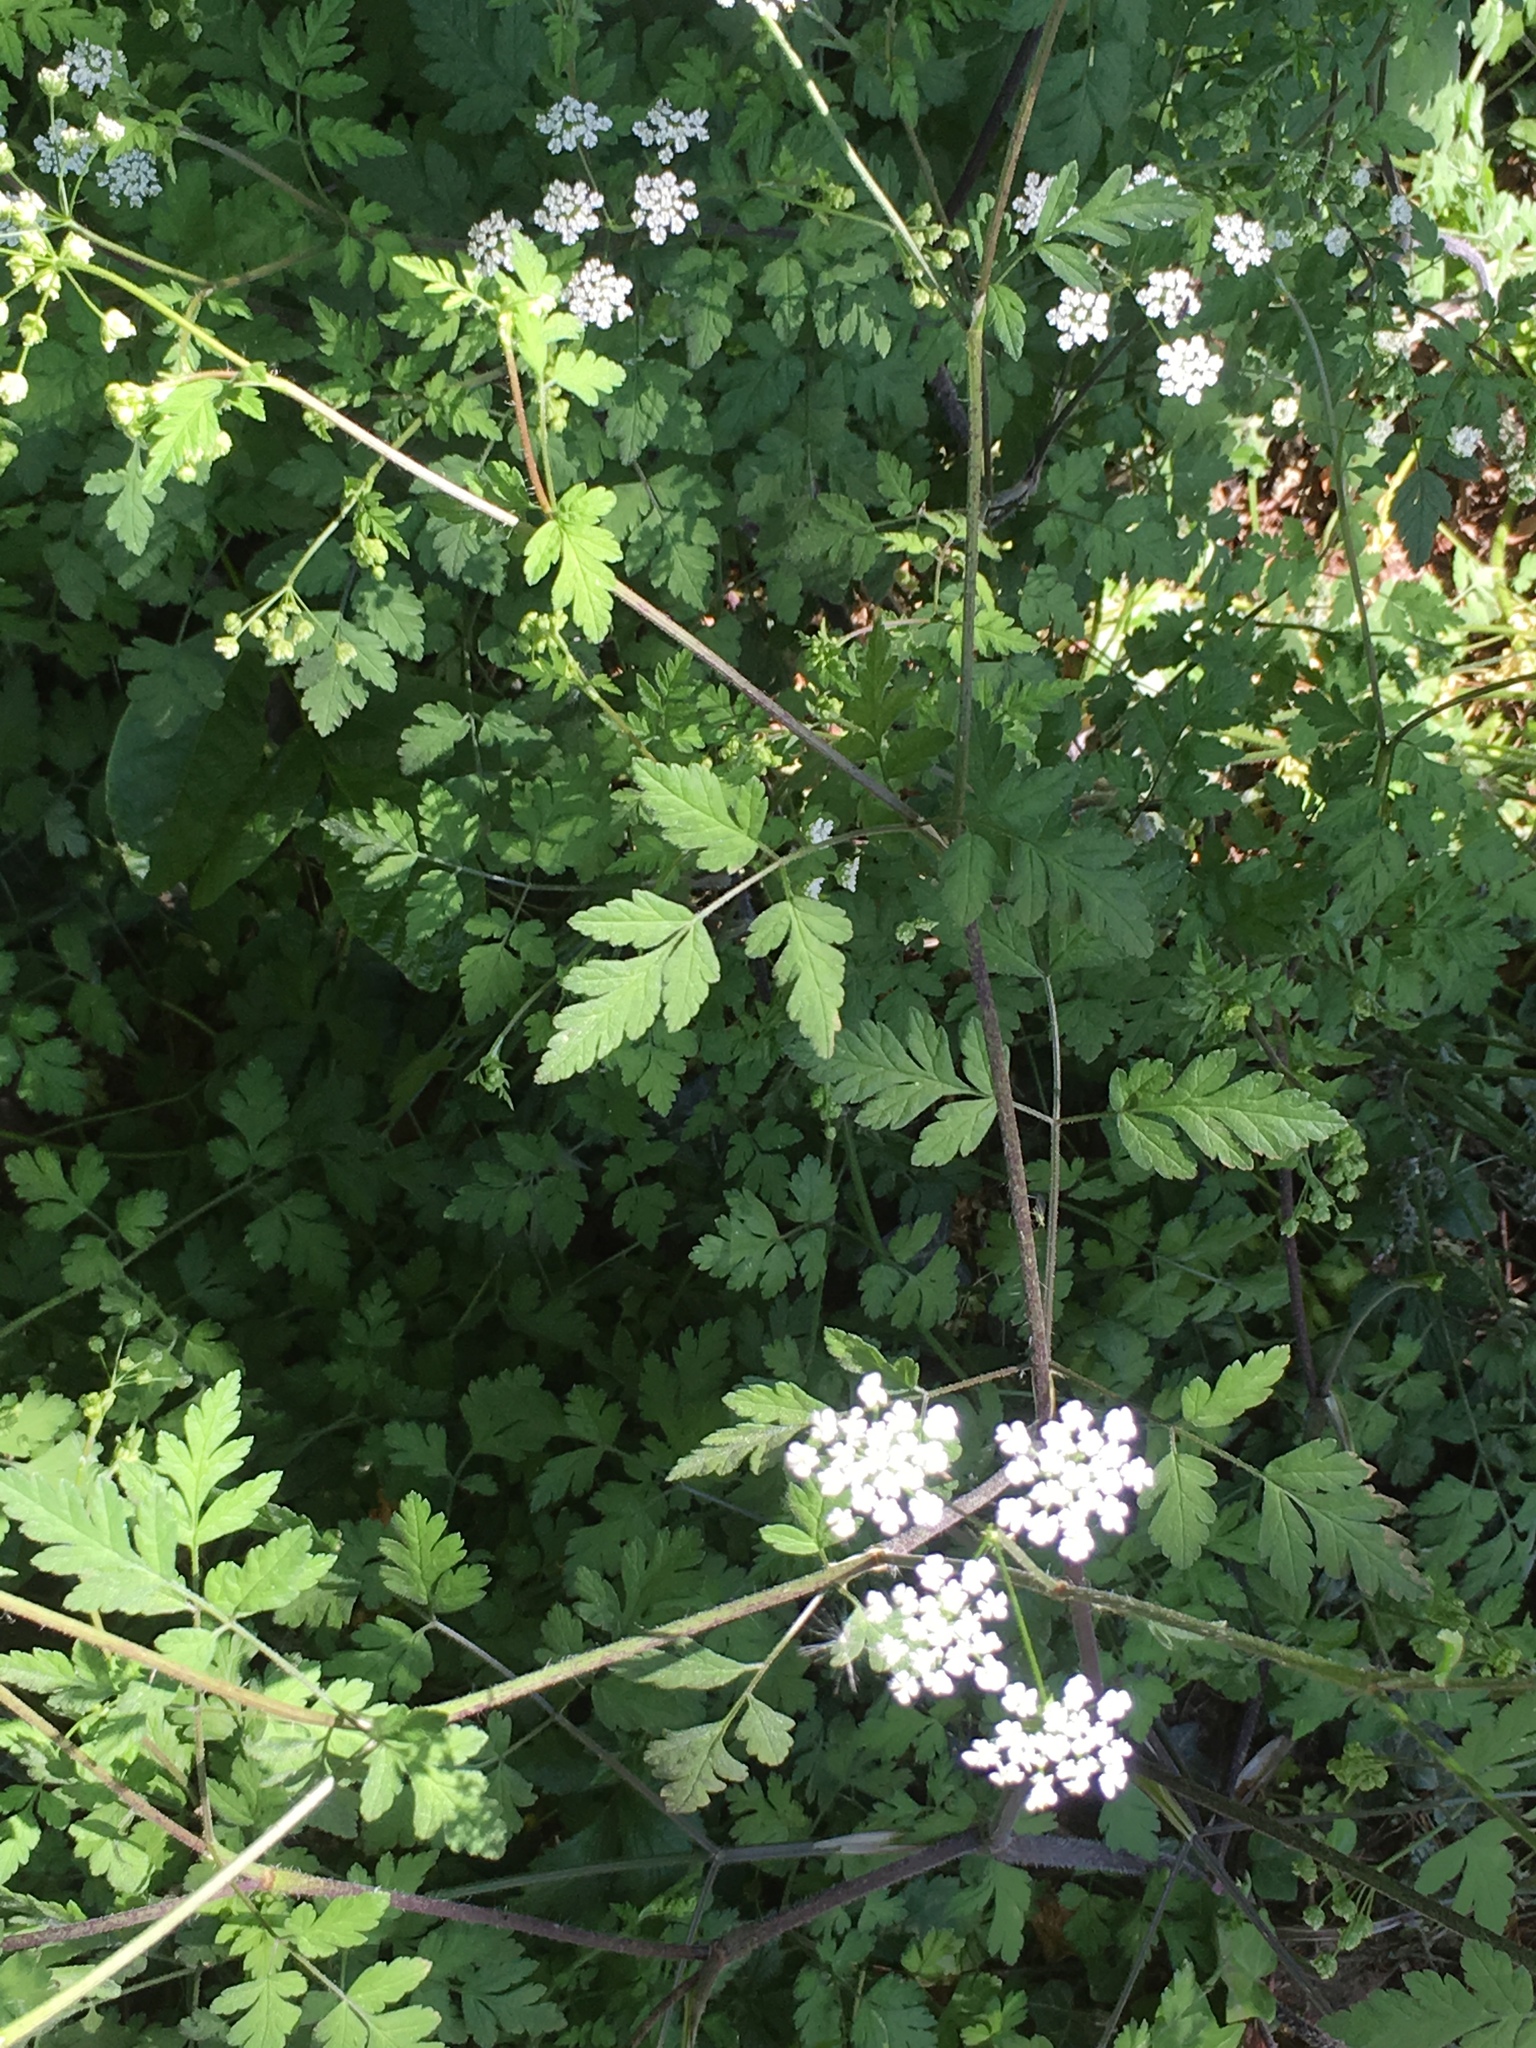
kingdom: Plantae
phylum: Tracheophyta
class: Magnoliopsida
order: Apiales
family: Apiaceae
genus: Chaerophyllum
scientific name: Chaerophyllum temulum
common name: Rough chervil
